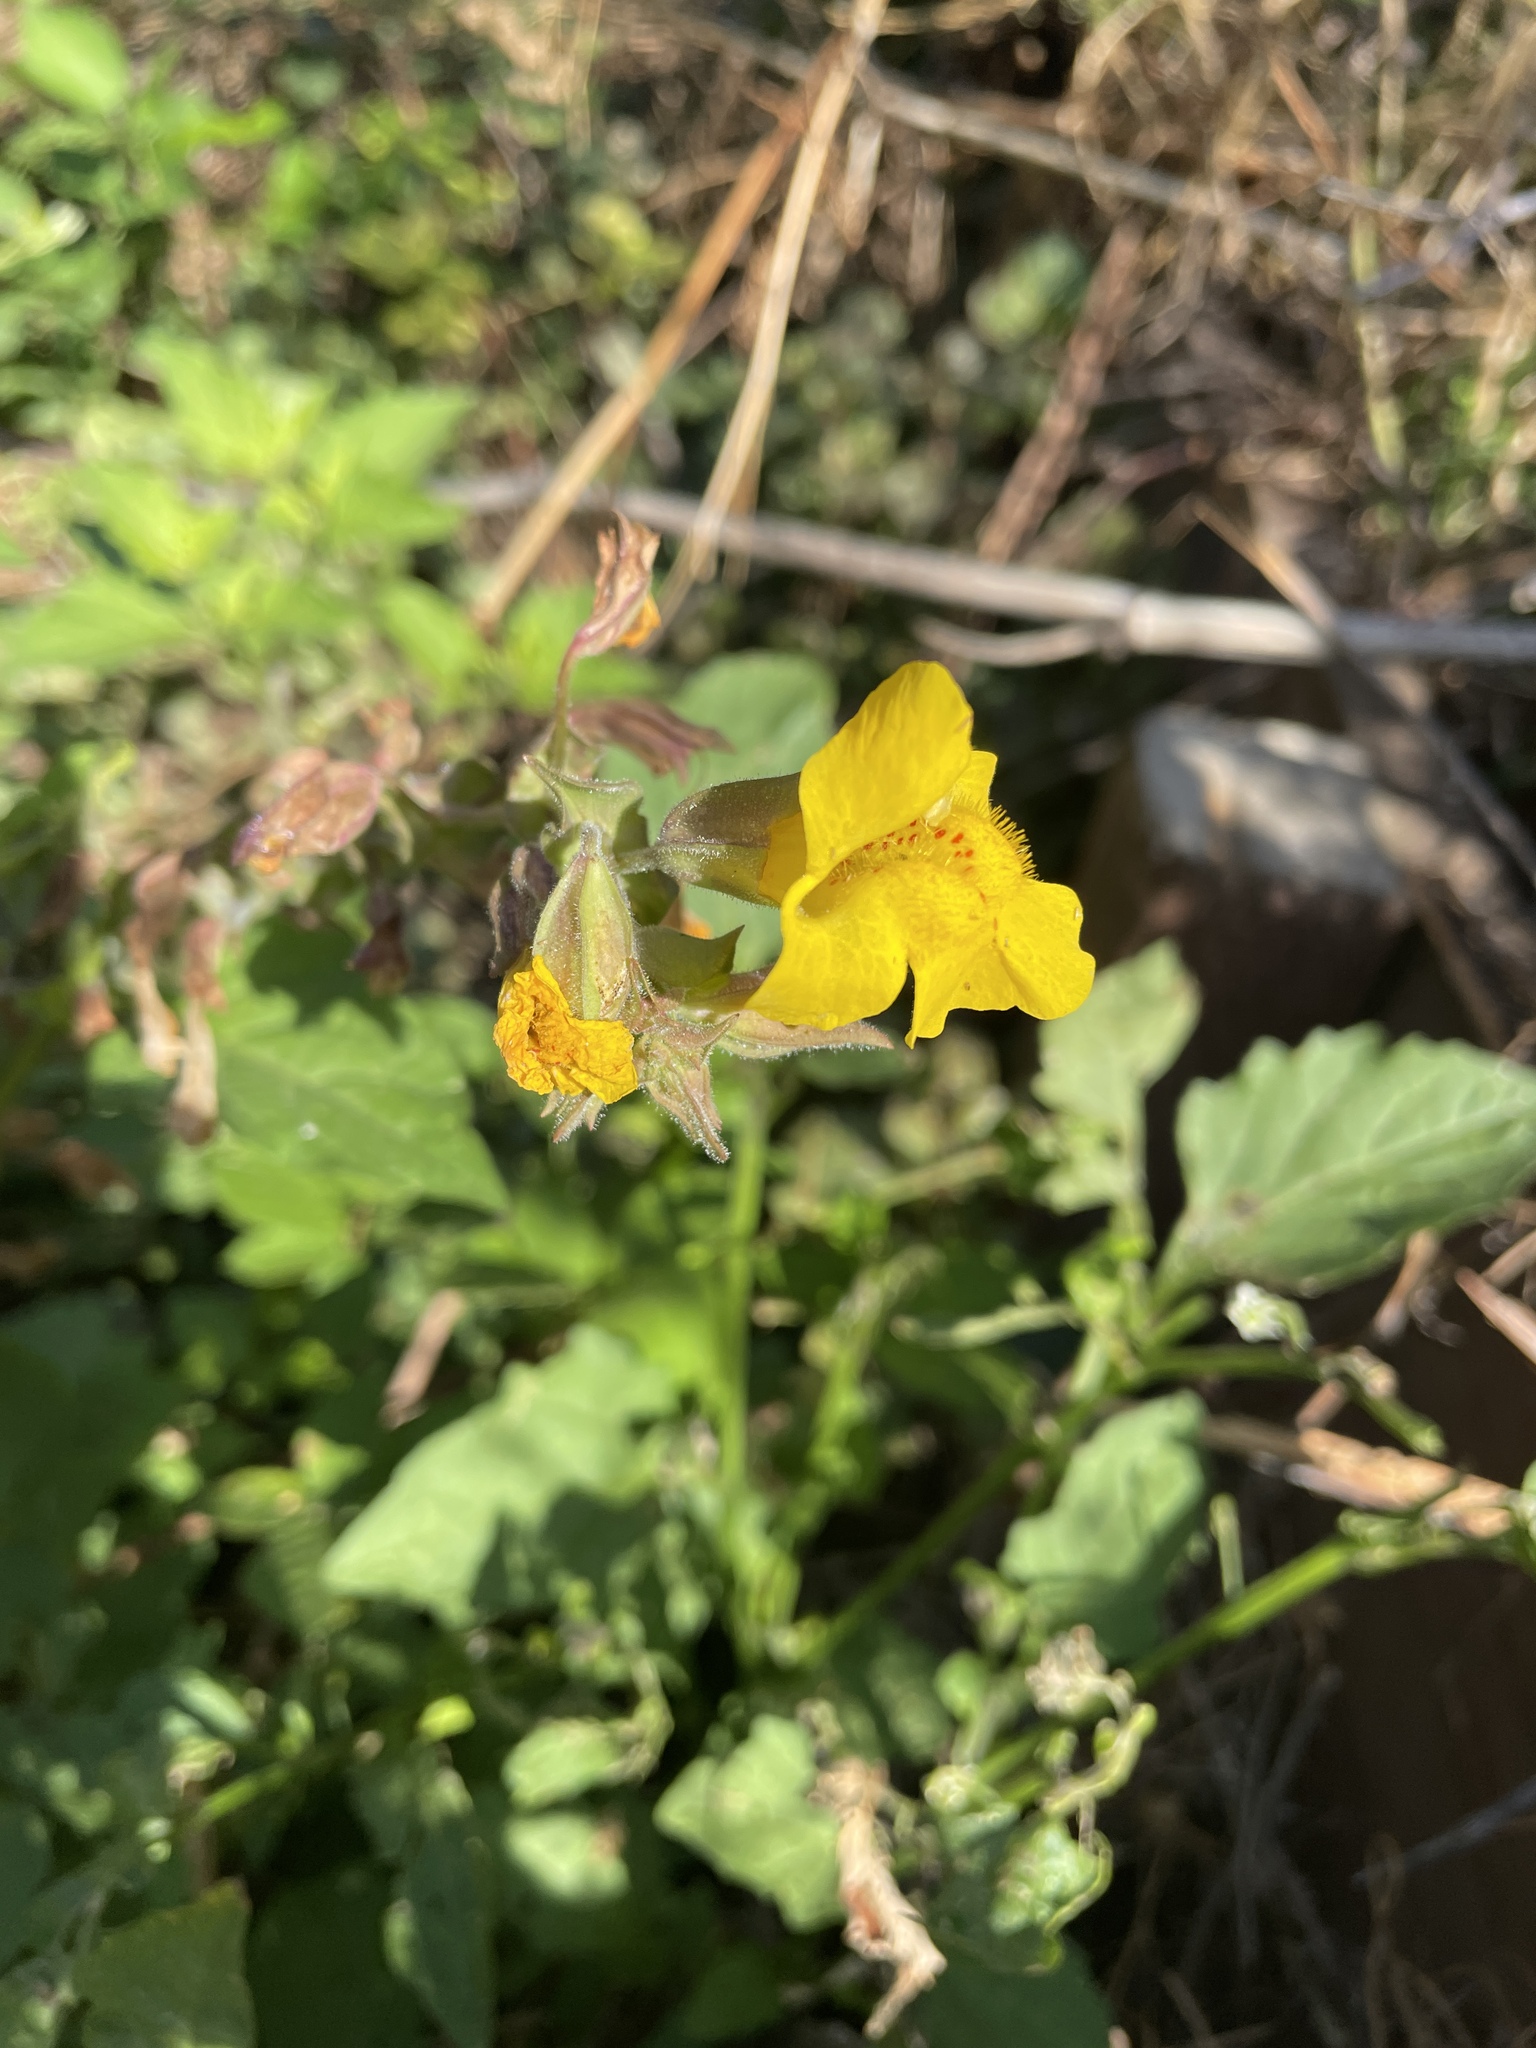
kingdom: Plantae
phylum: Tracheophyta
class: Magnoliopsida
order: Lamiales
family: Phrymaceae
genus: Erythranthe
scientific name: Erythranthe guttata
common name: Monkeyflower
